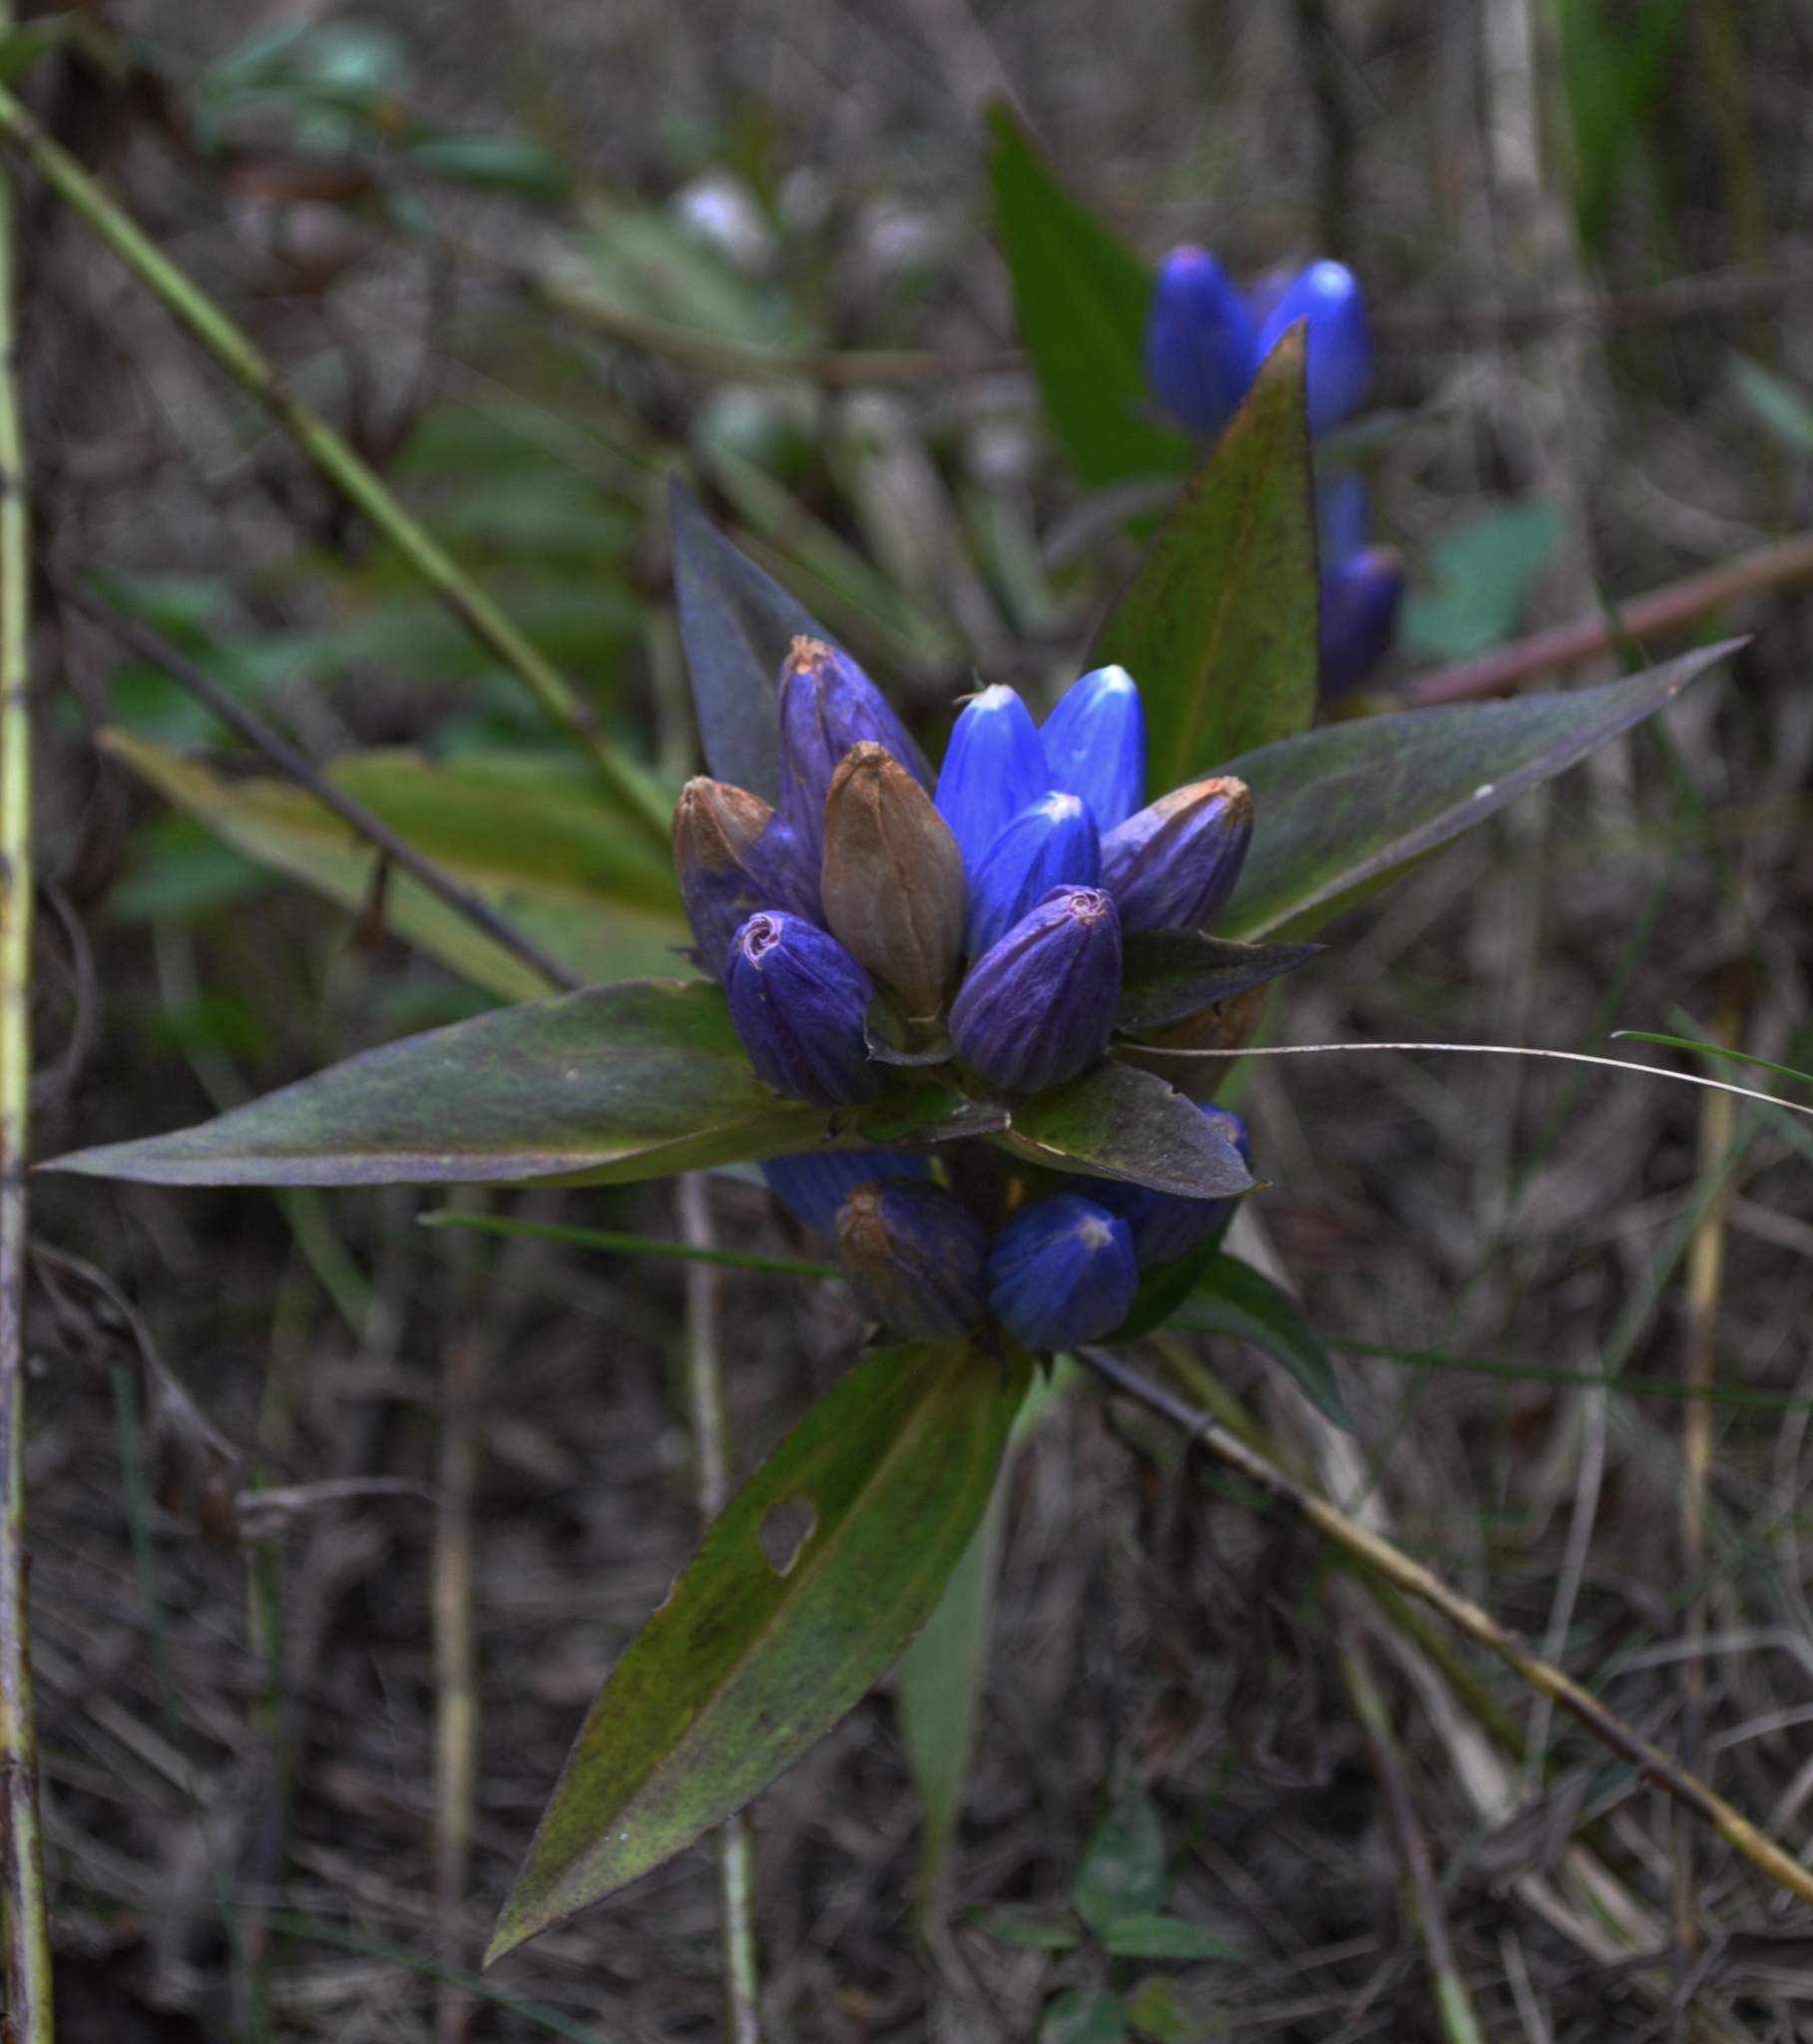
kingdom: Plantae
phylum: Tracheophyta
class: Magnoliopsida
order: Gentianales
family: Gentianaceae
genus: Gentiana
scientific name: Gentiana andrewsii
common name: Bottle gentian
